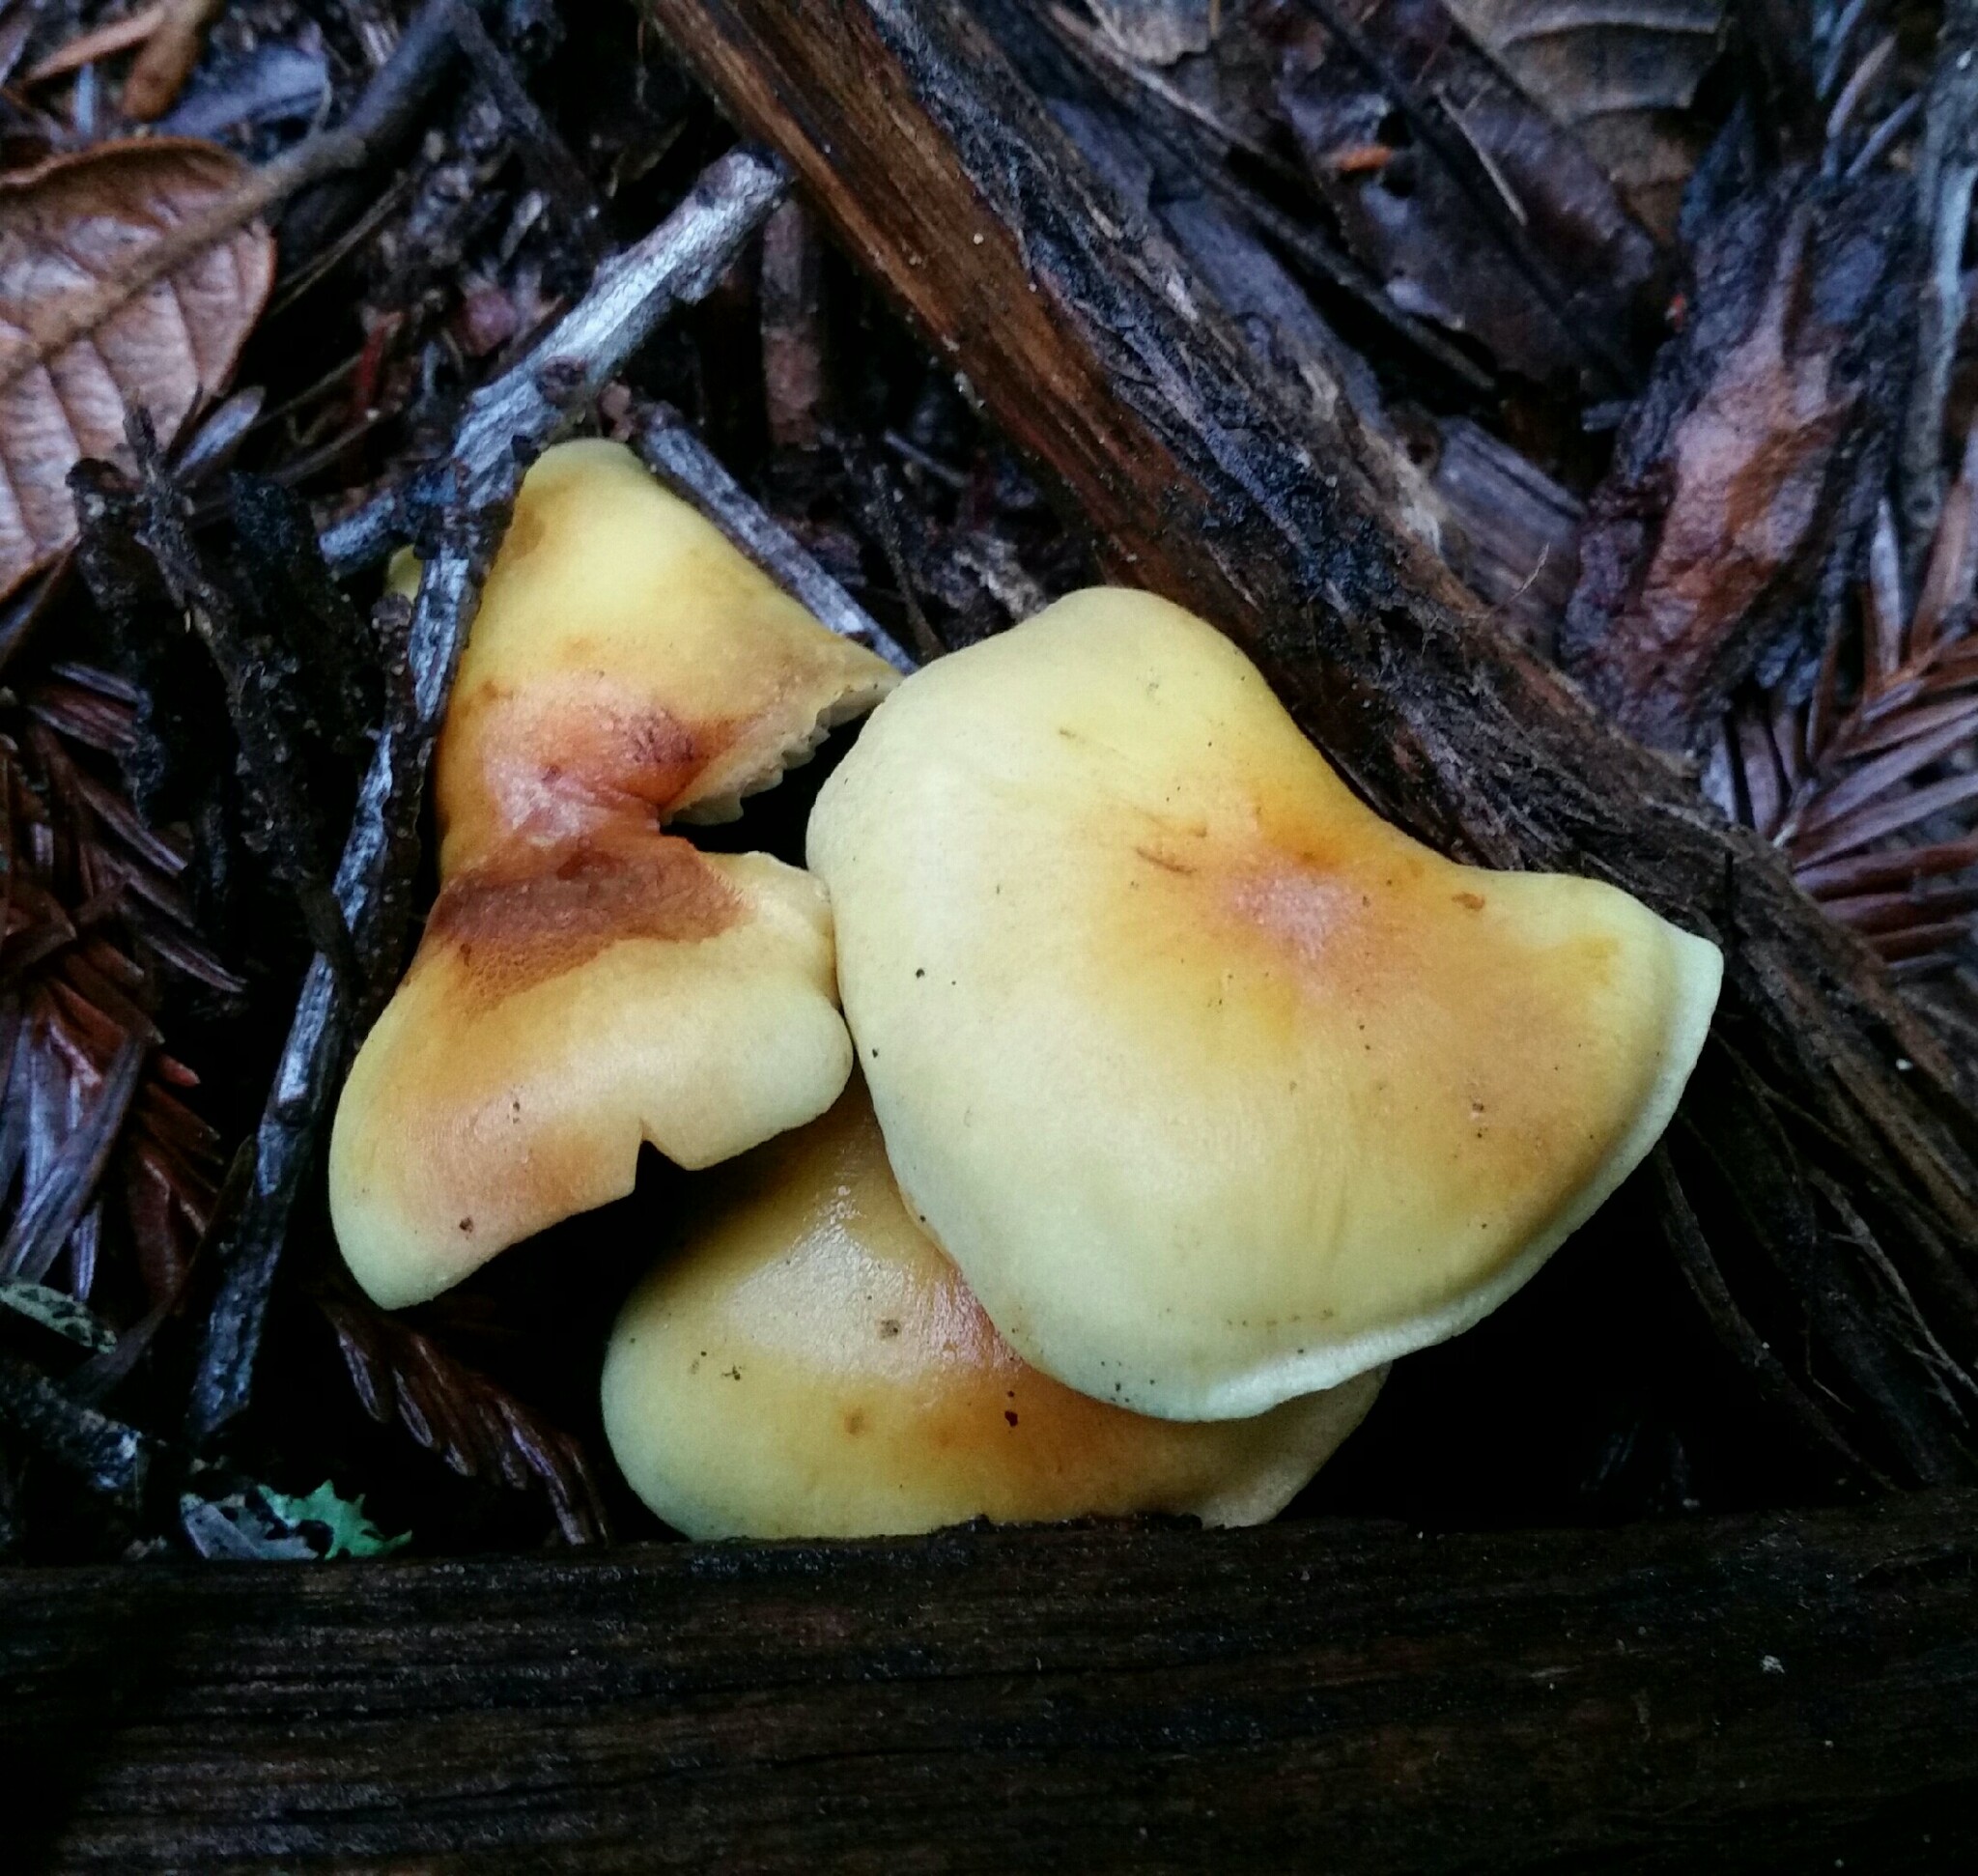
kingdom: Fungi
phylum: Basidiomycota
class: Agaricomycetes
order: Agaricales
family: Strophariaceae
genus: Hypholoma
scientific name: Hypholoma fasciculare
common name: Sulphur tuft
